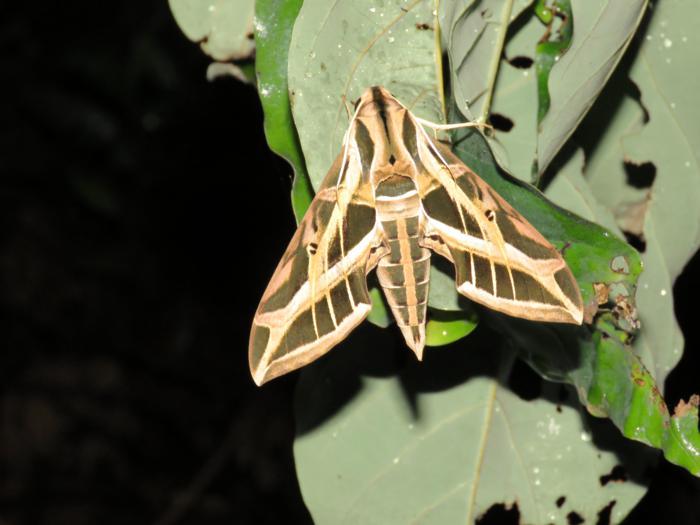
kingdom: Animalia
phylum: Arthropoda
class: Insecta
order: Lepidoptera
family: Sphingidae
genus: Eumorpha
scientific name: Eumorpha vitis
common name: Vine sphinx
